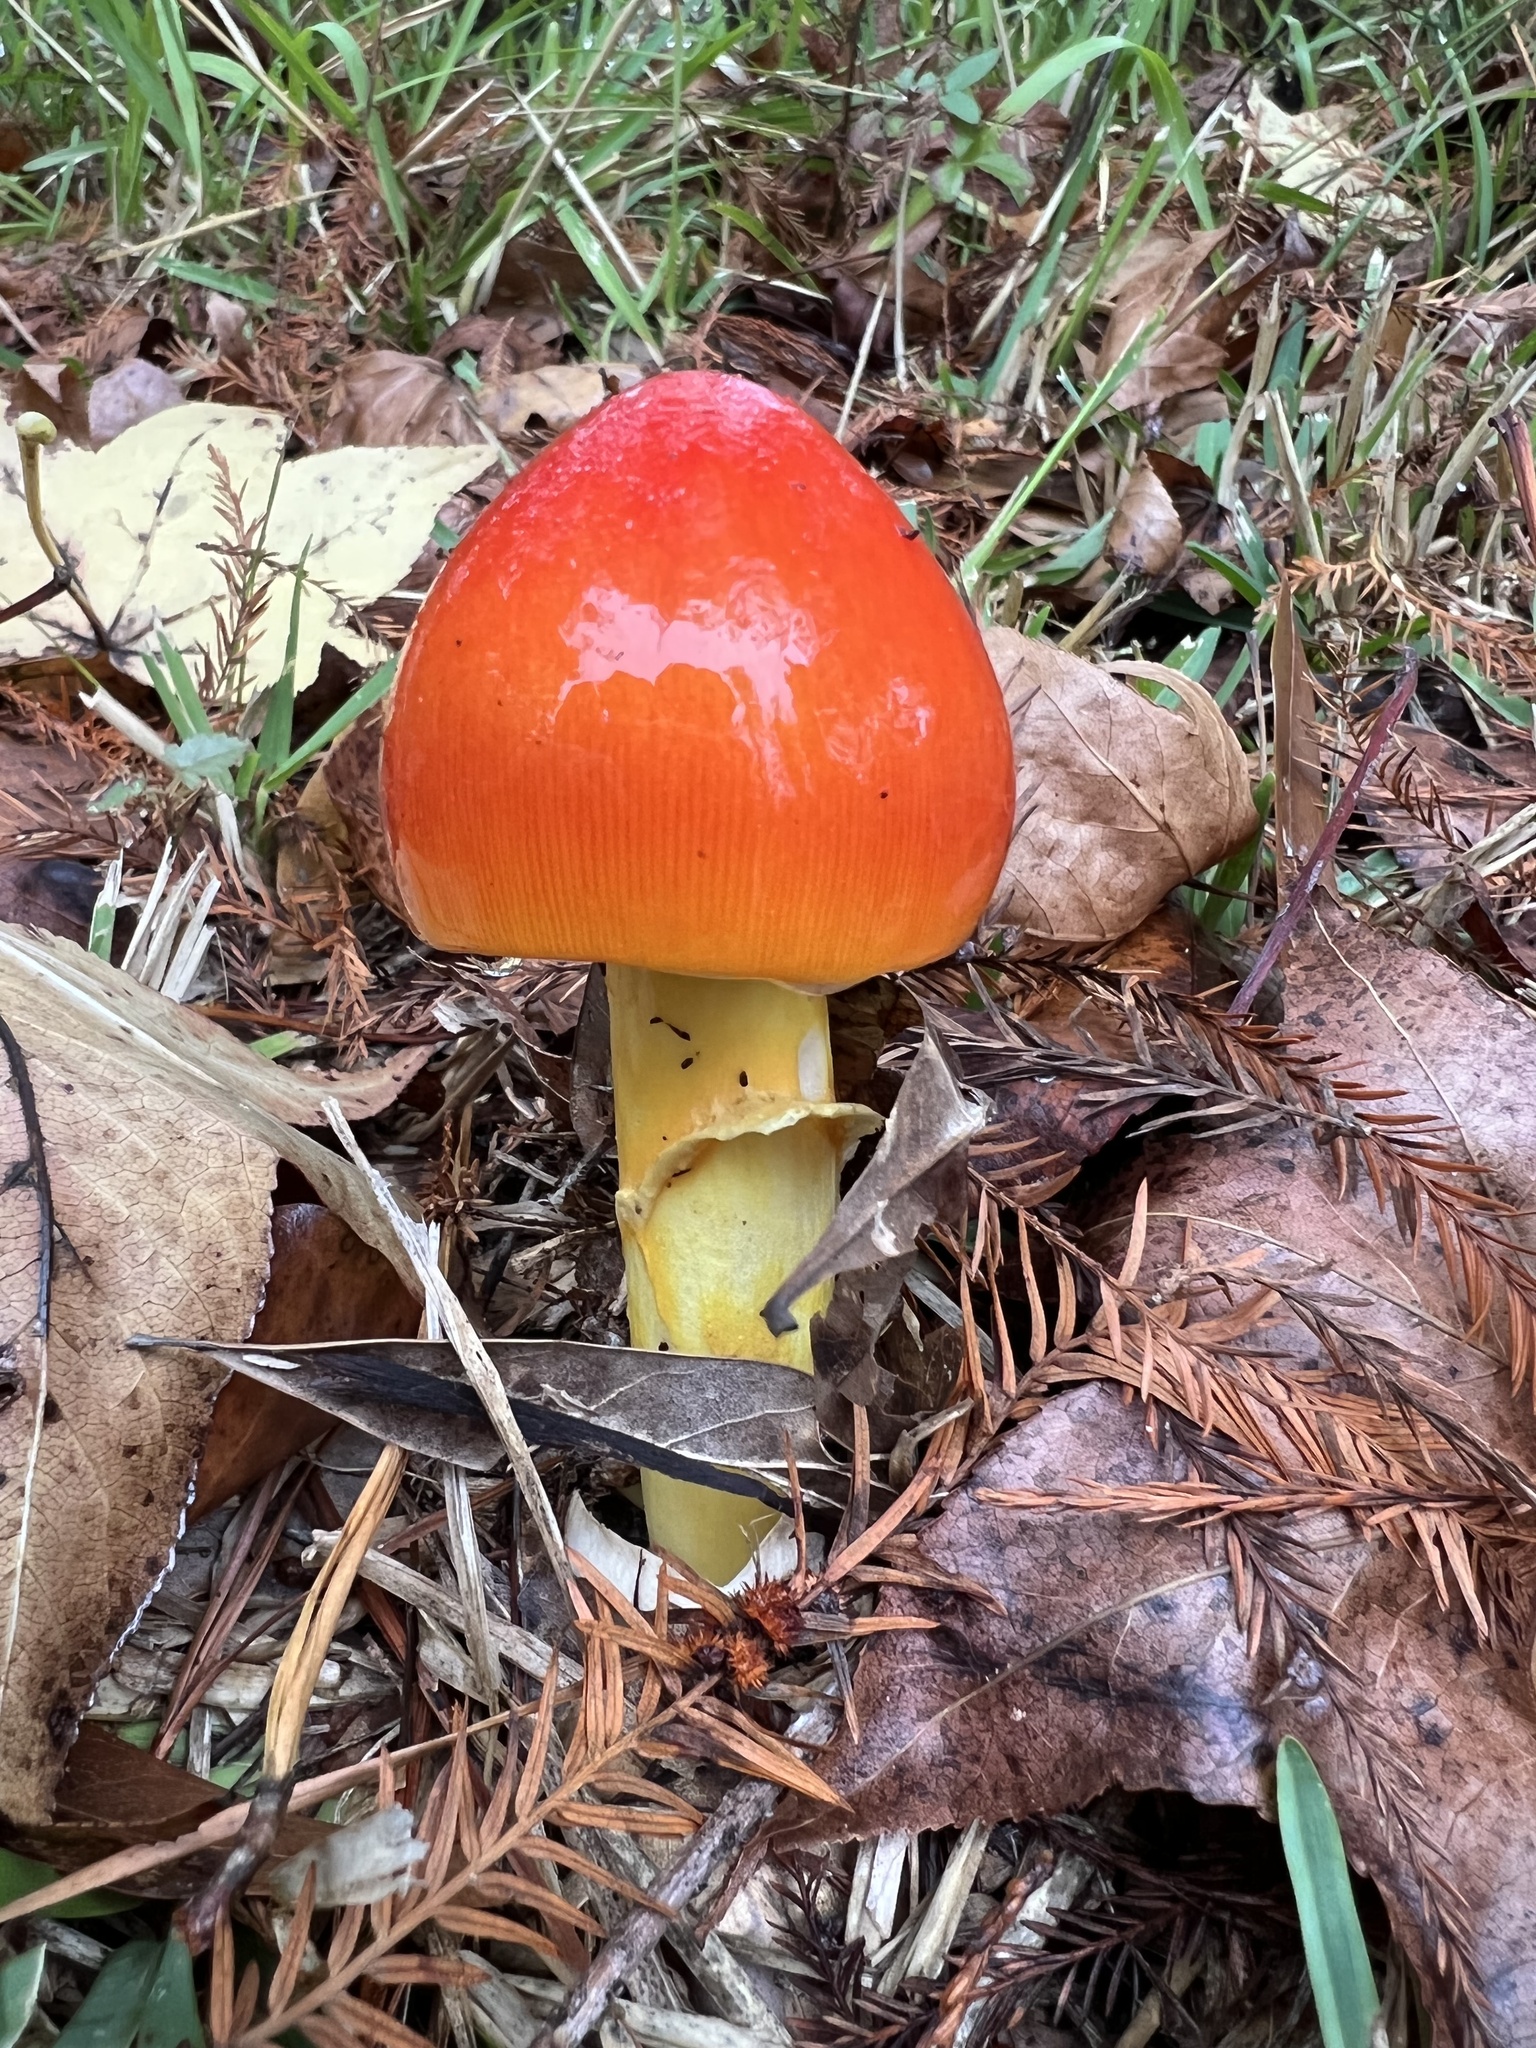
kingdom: Fungi
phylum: Basidiomycota
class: Agaricomycetes
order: Agaricales
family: Amanitaceae
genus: Amanita
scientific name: Amanita jacksonii
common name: Jackson's slender caesar
